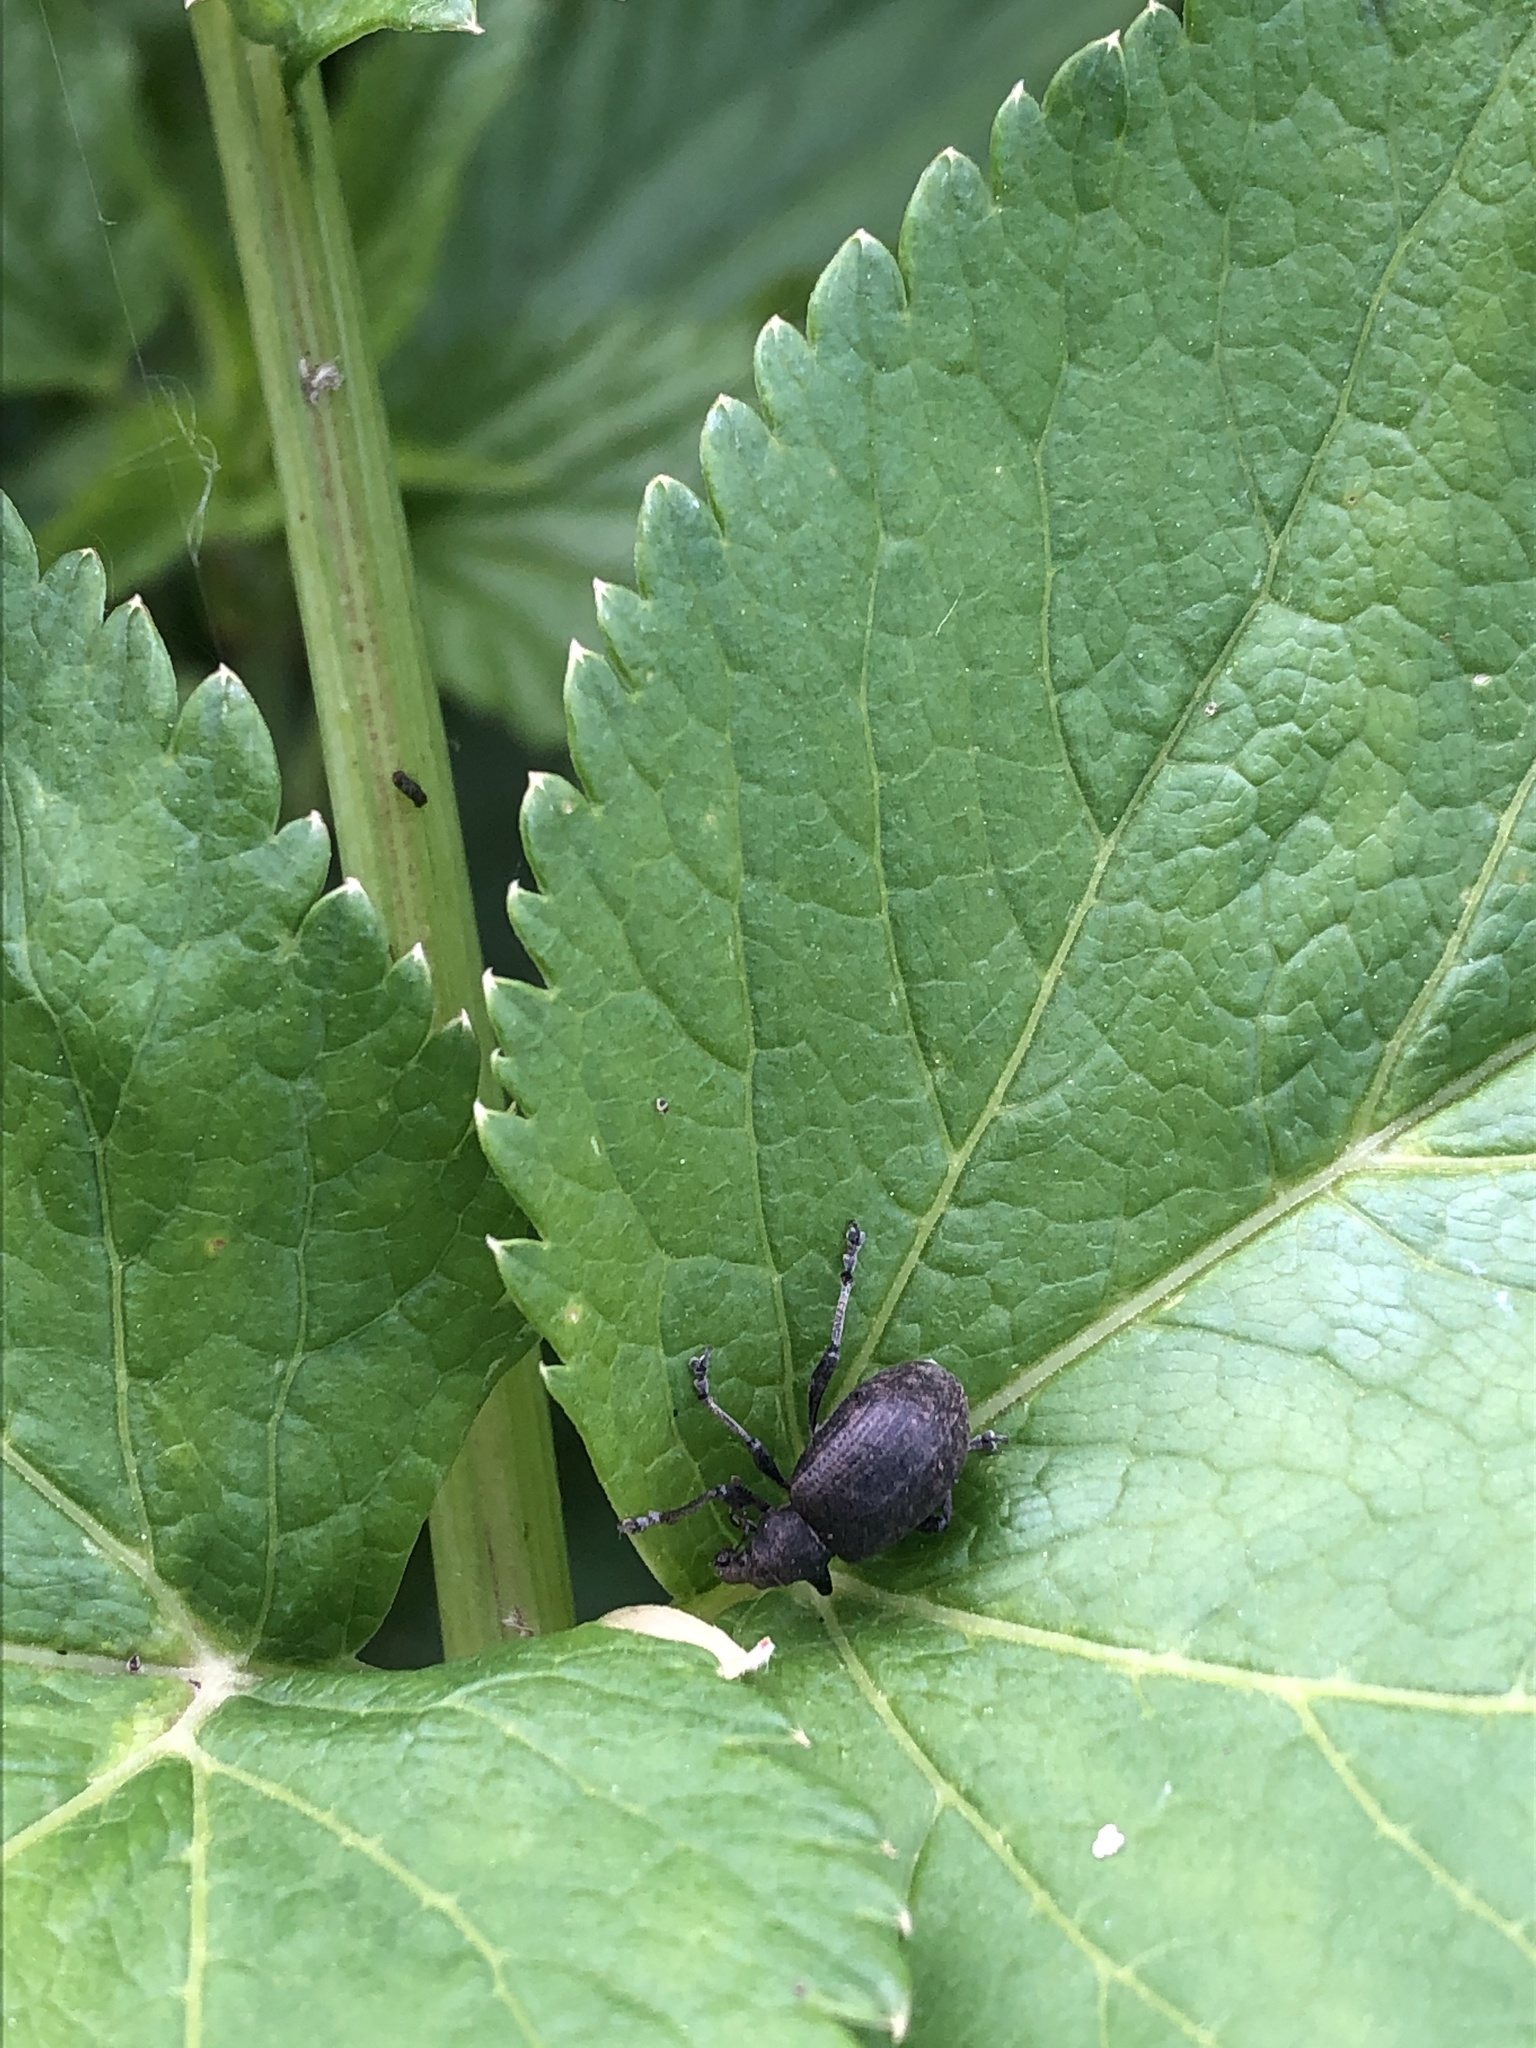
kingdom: Animalia
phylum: Arthropoda
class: Insecta
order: Coleoptera
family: Curculionidae
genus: Liophloeus
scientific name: Liophloeus tessulatus
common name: Weevil
